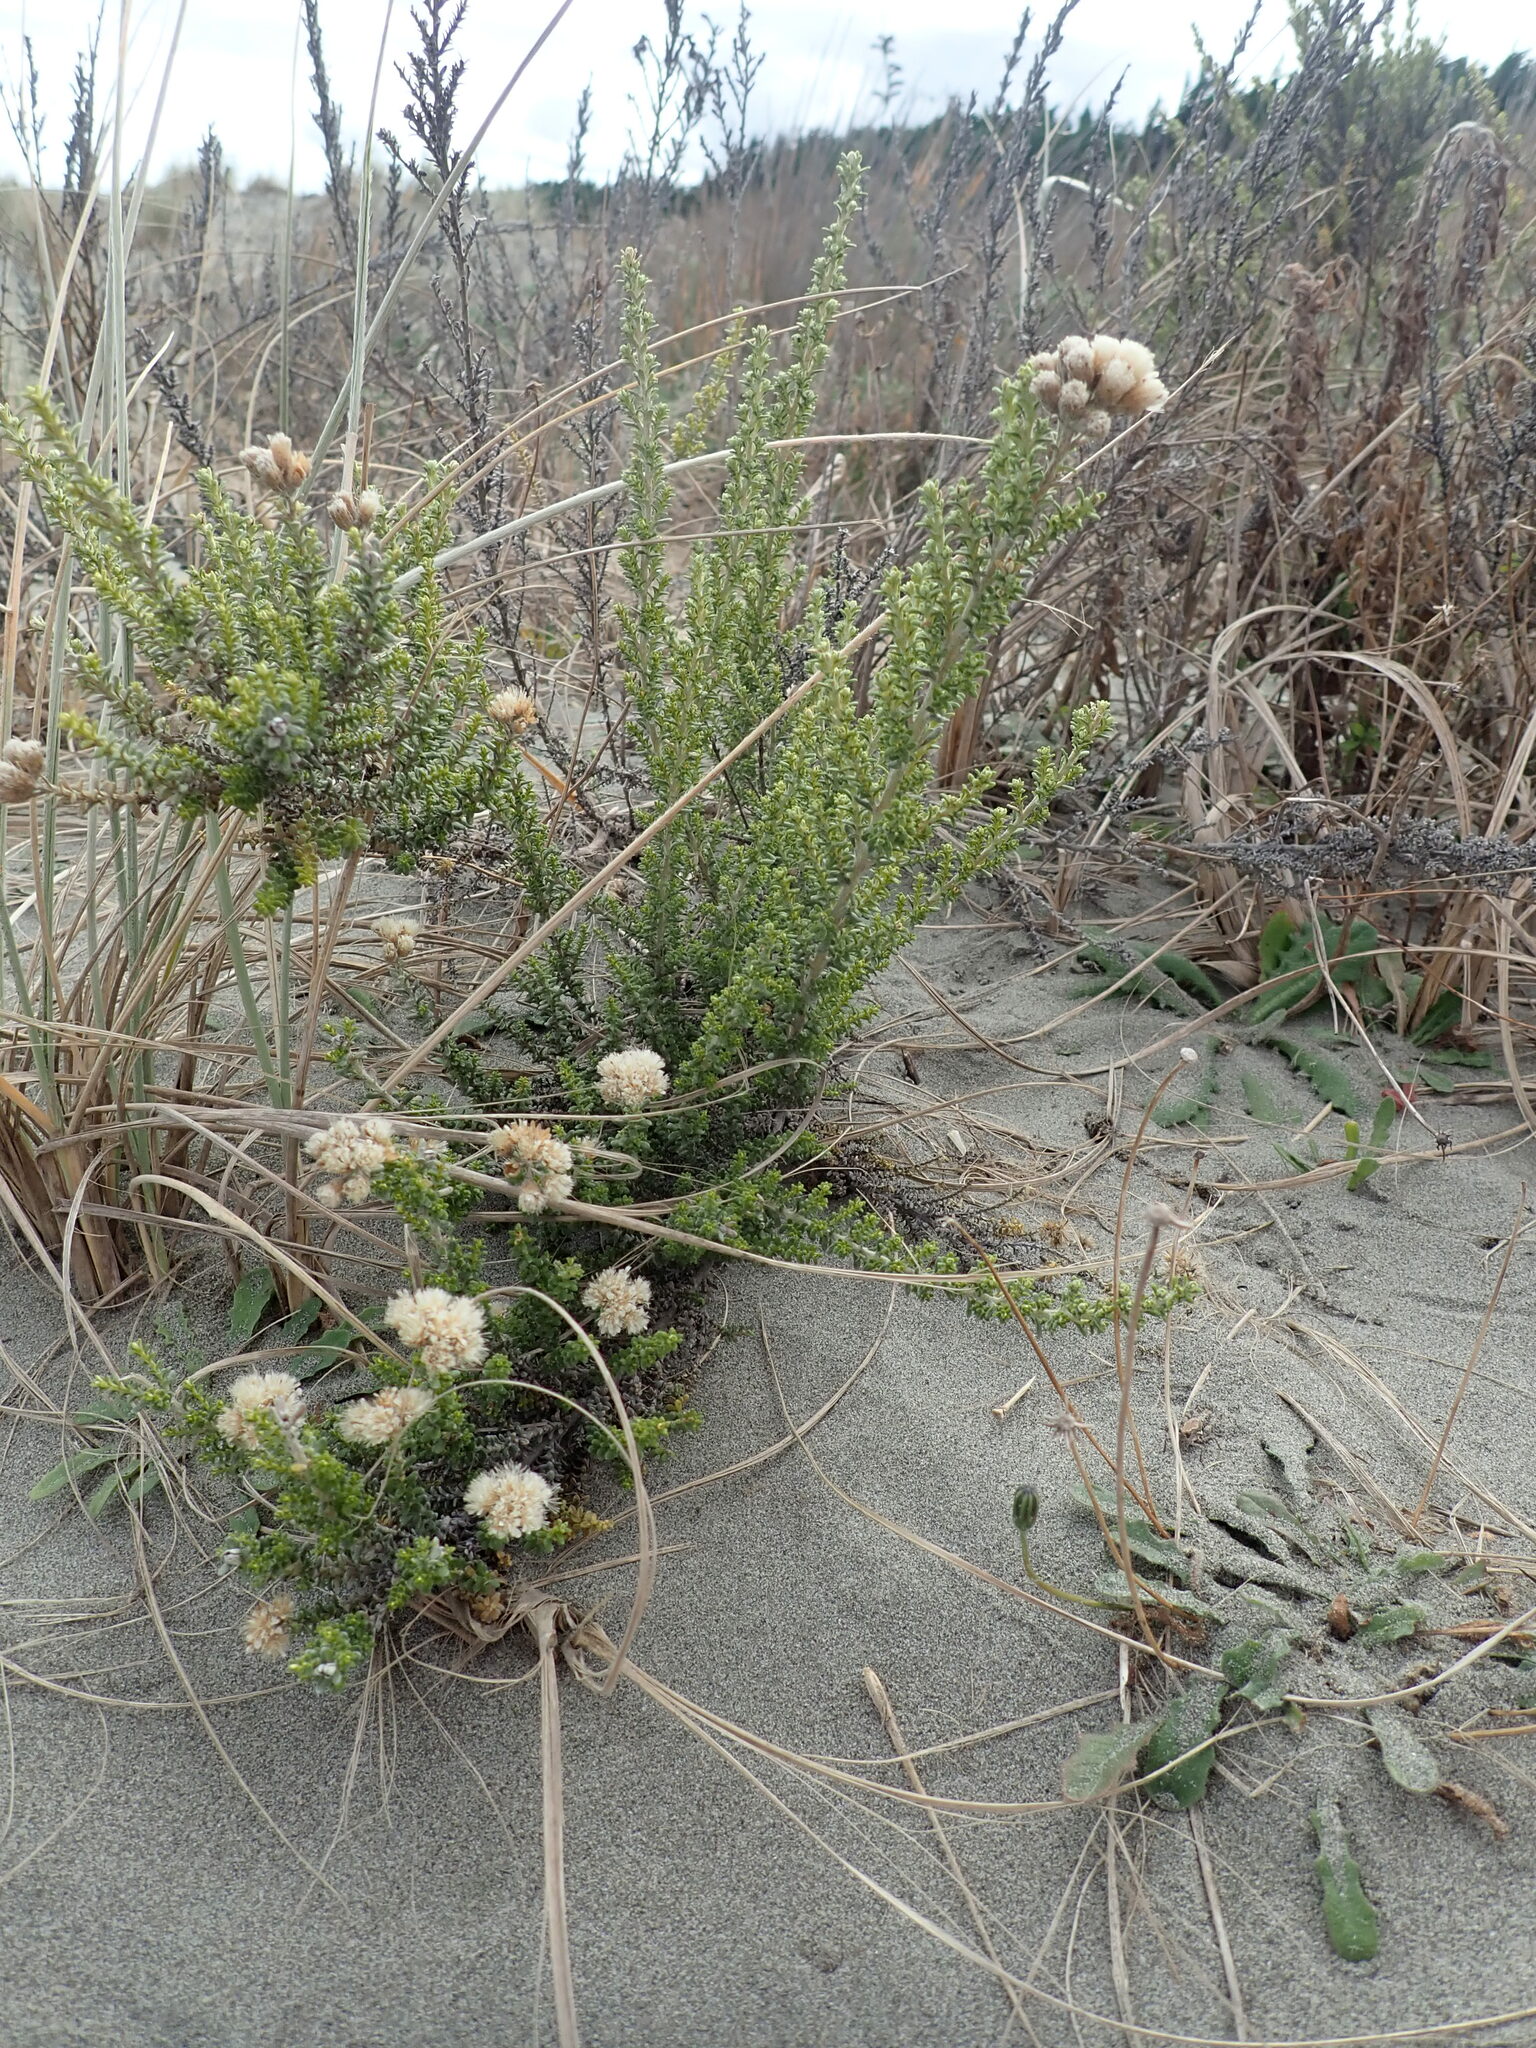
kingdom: Plantae
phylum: Tracheophyta
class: Magnoliopsida
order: Asterales
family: Asteraceae
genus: Ozothamnus
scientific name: Ozothamnus leptophyllus
